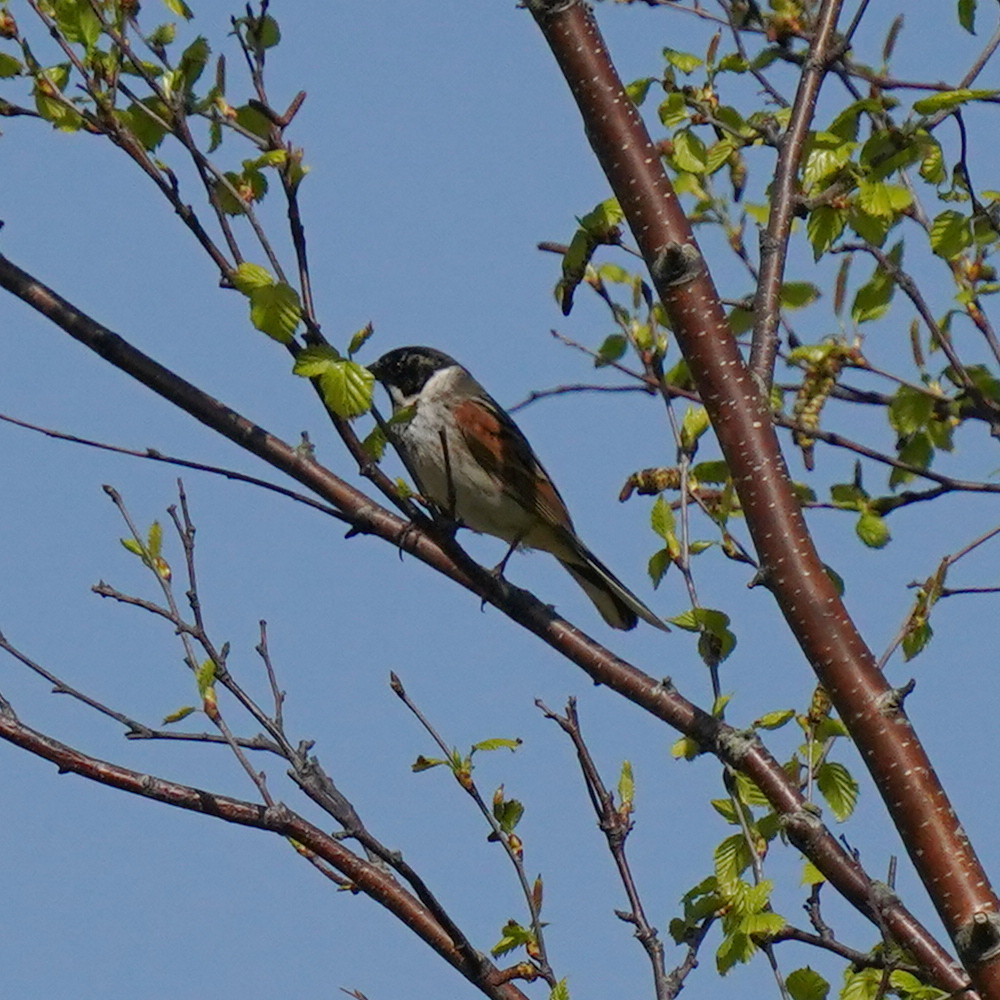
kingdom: Animalia
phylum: Chordata
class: Aves
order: Passeriformes
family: Emberizidae
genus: Emberiza
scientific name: Emberiza schoeniclus
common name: Reed bunting
